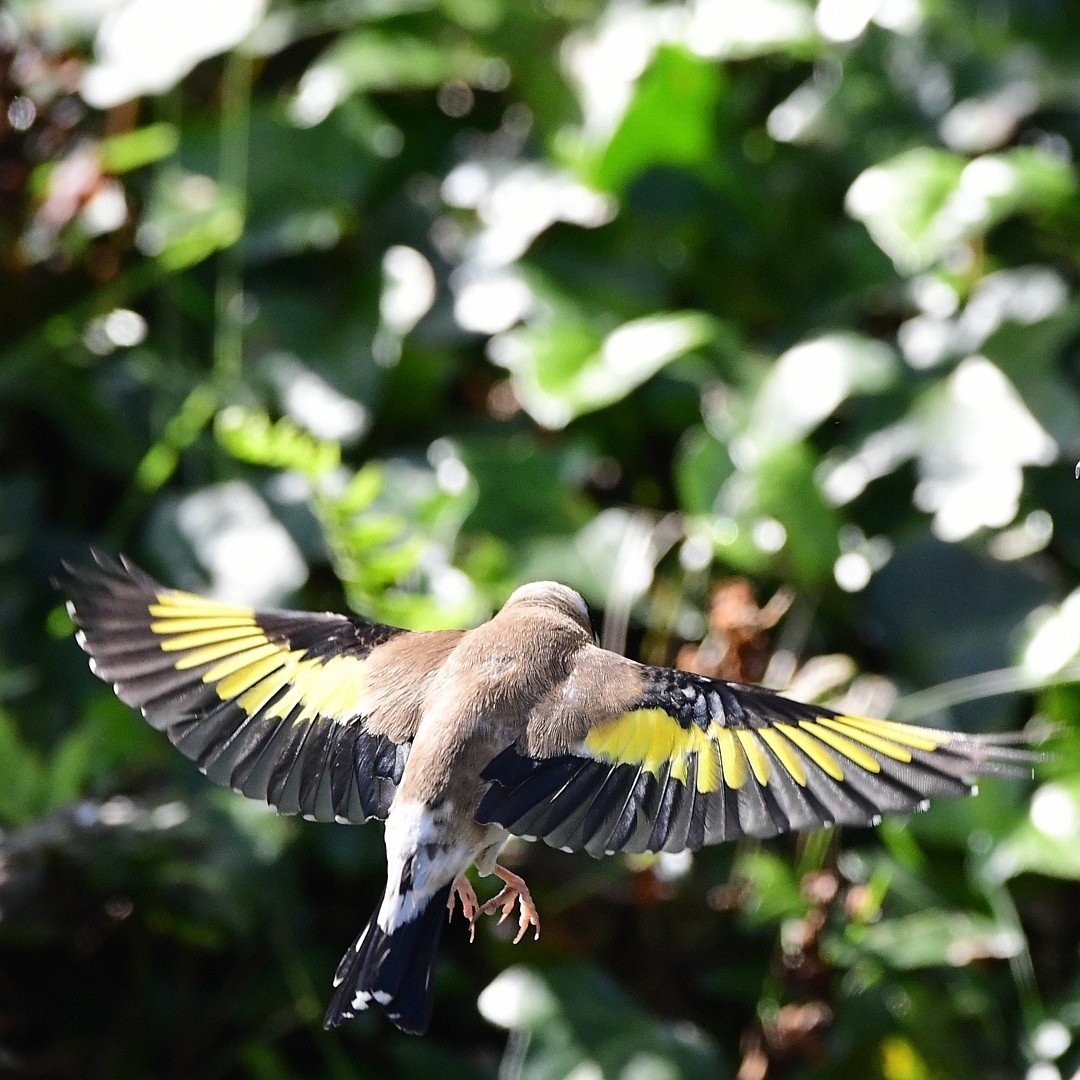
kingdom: Animalia
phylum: Chordata
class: Aves
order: Passeriformes
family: Fringillidae
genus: Carduelis
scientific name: Carduelis carduelis
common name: European goldfinch
